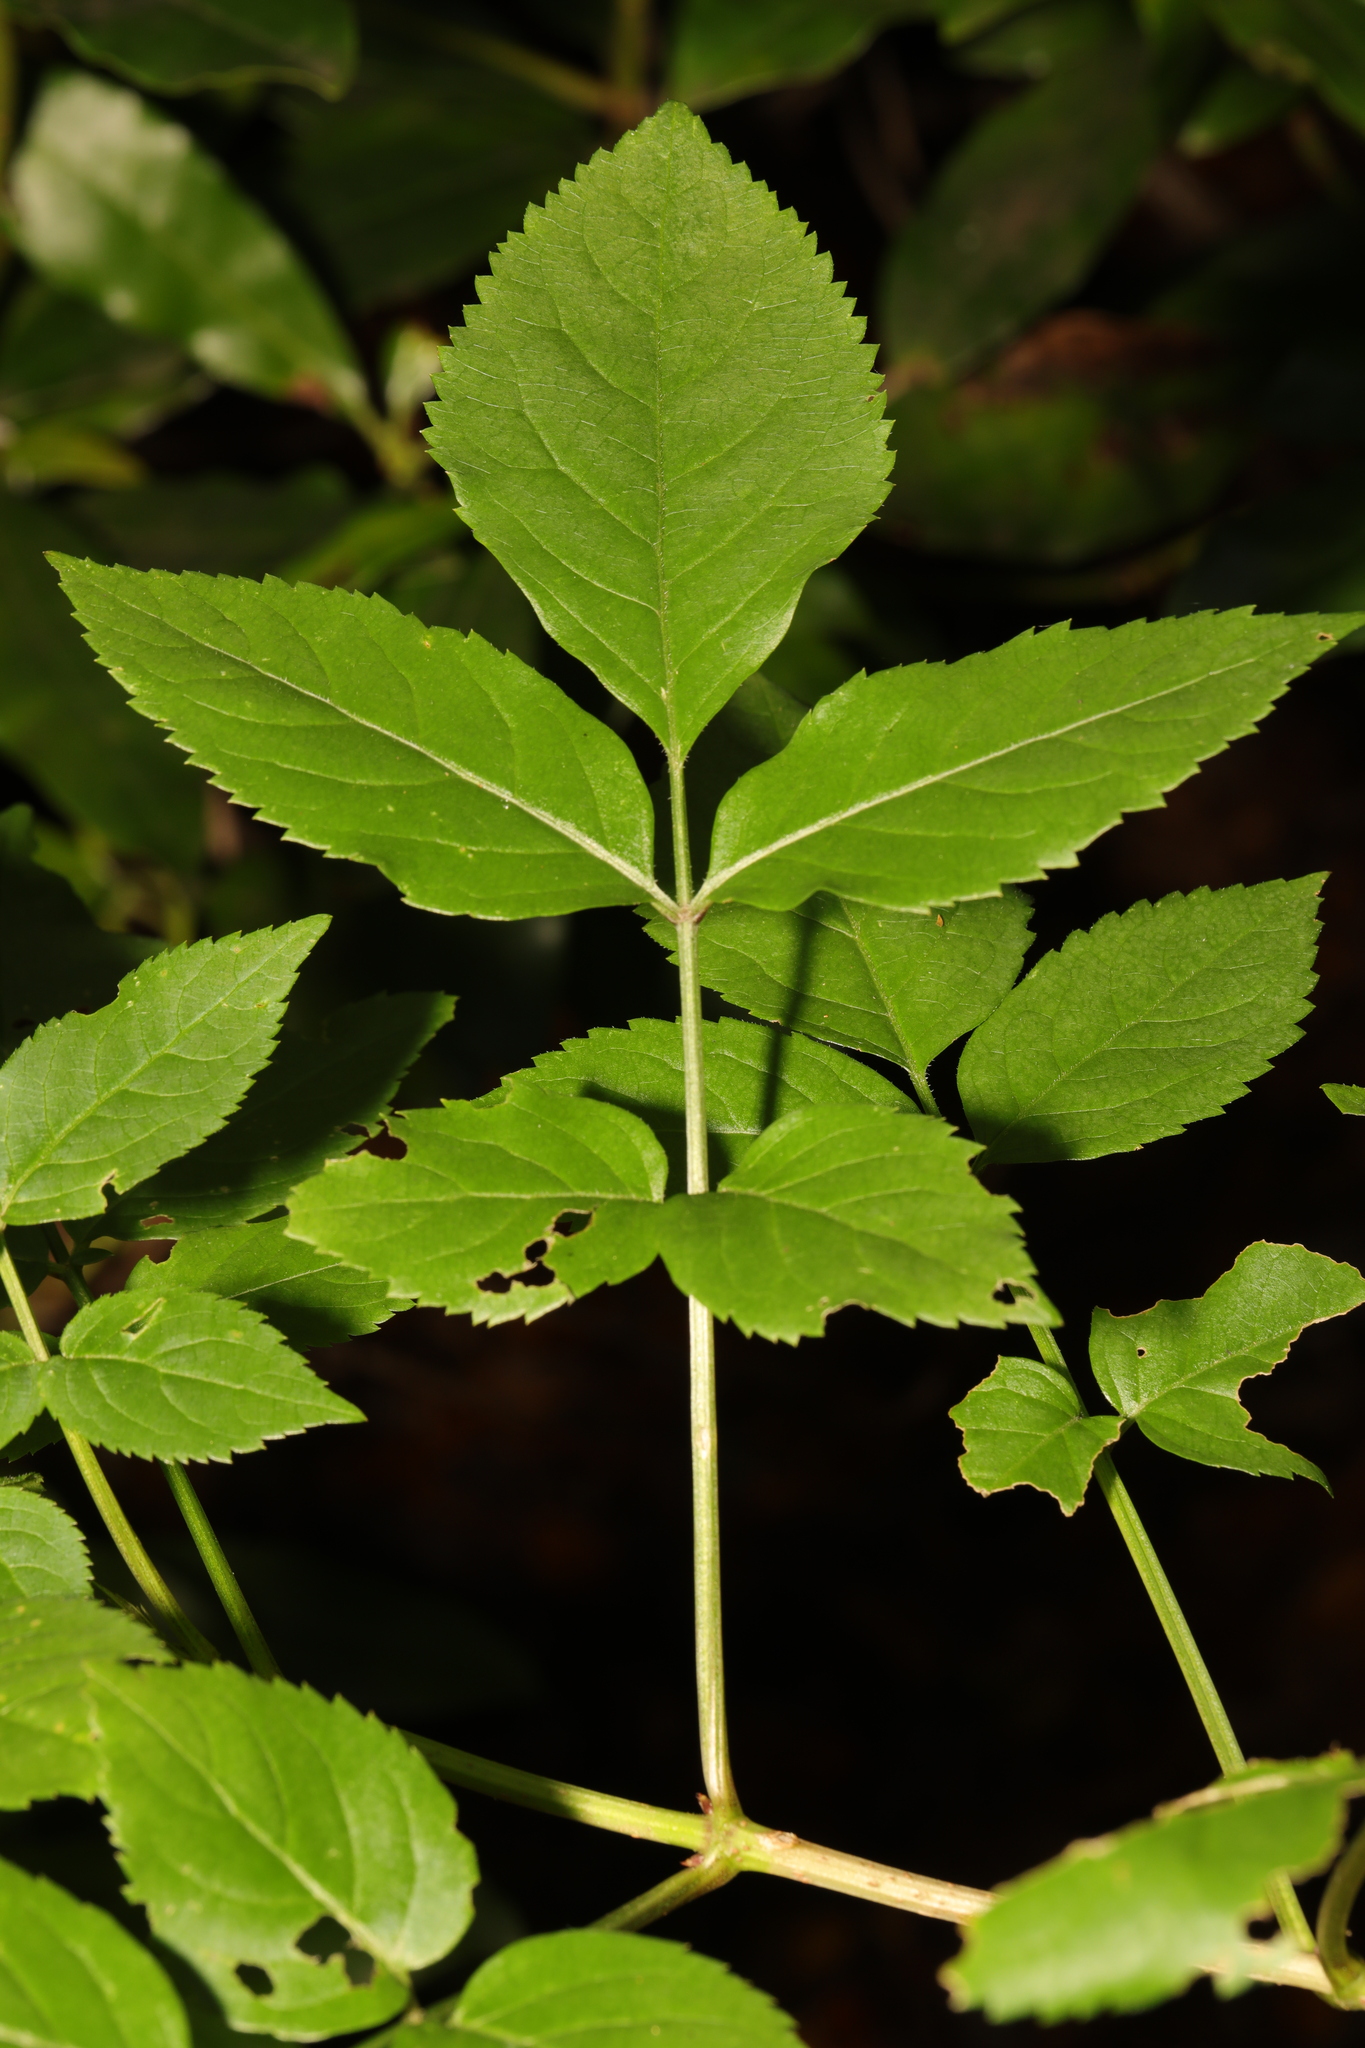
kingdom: Plantae
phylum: Tracheophyta
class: Magnoliopsida
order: Dipsacales
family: Viburnaceae
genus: Sambucus
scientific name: Sambucus nigra
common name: Elder
